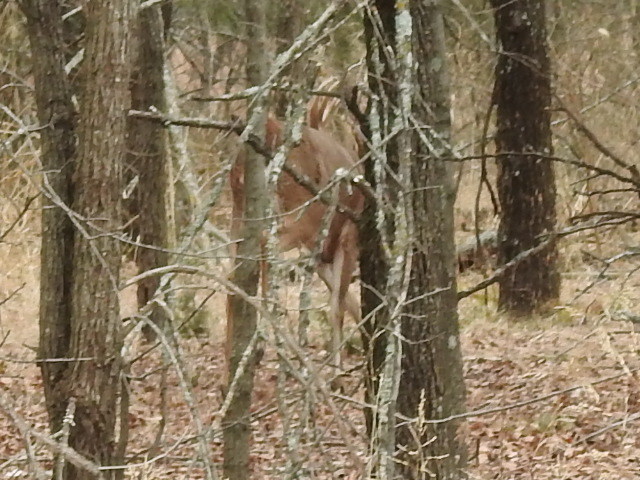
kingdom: Animalia
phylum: Chordata
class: Mammalia
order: Artiodactyla
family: Cervidae
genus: Odocoileus
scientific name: Odocoileus virginianus
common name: White-tailed deer
